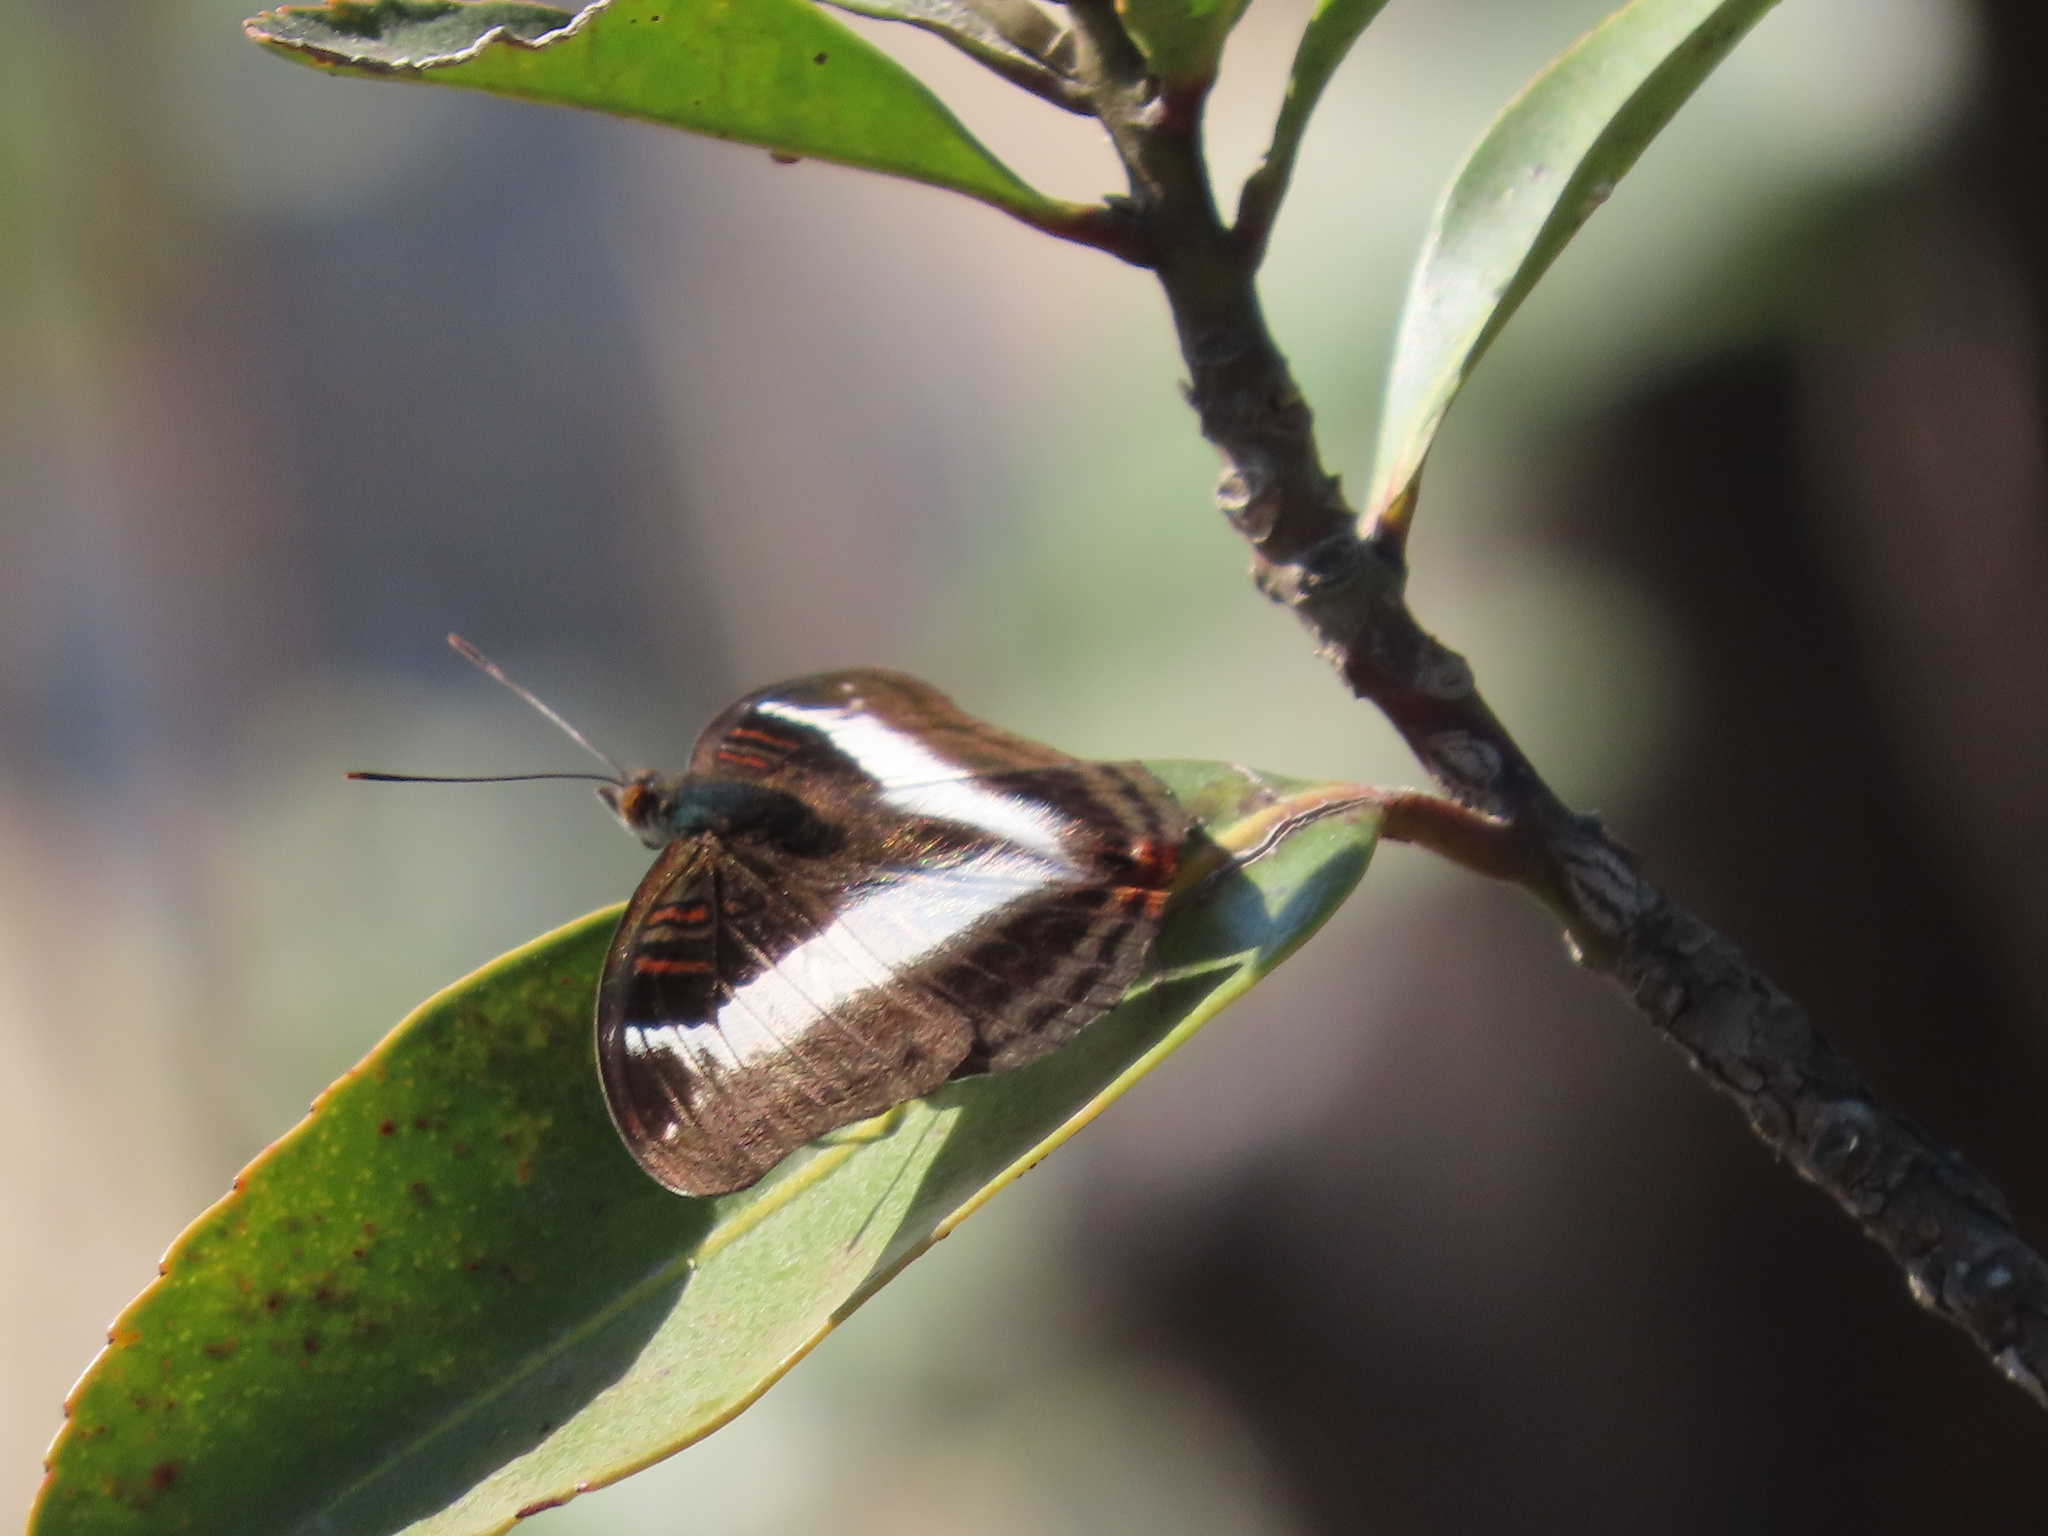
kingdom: Animalia
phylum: Arthropoda
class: Insecta
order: Lepidoptera
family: Nymphalidae
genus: Limenitis
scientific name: Limenitis Parasarpa dudu
